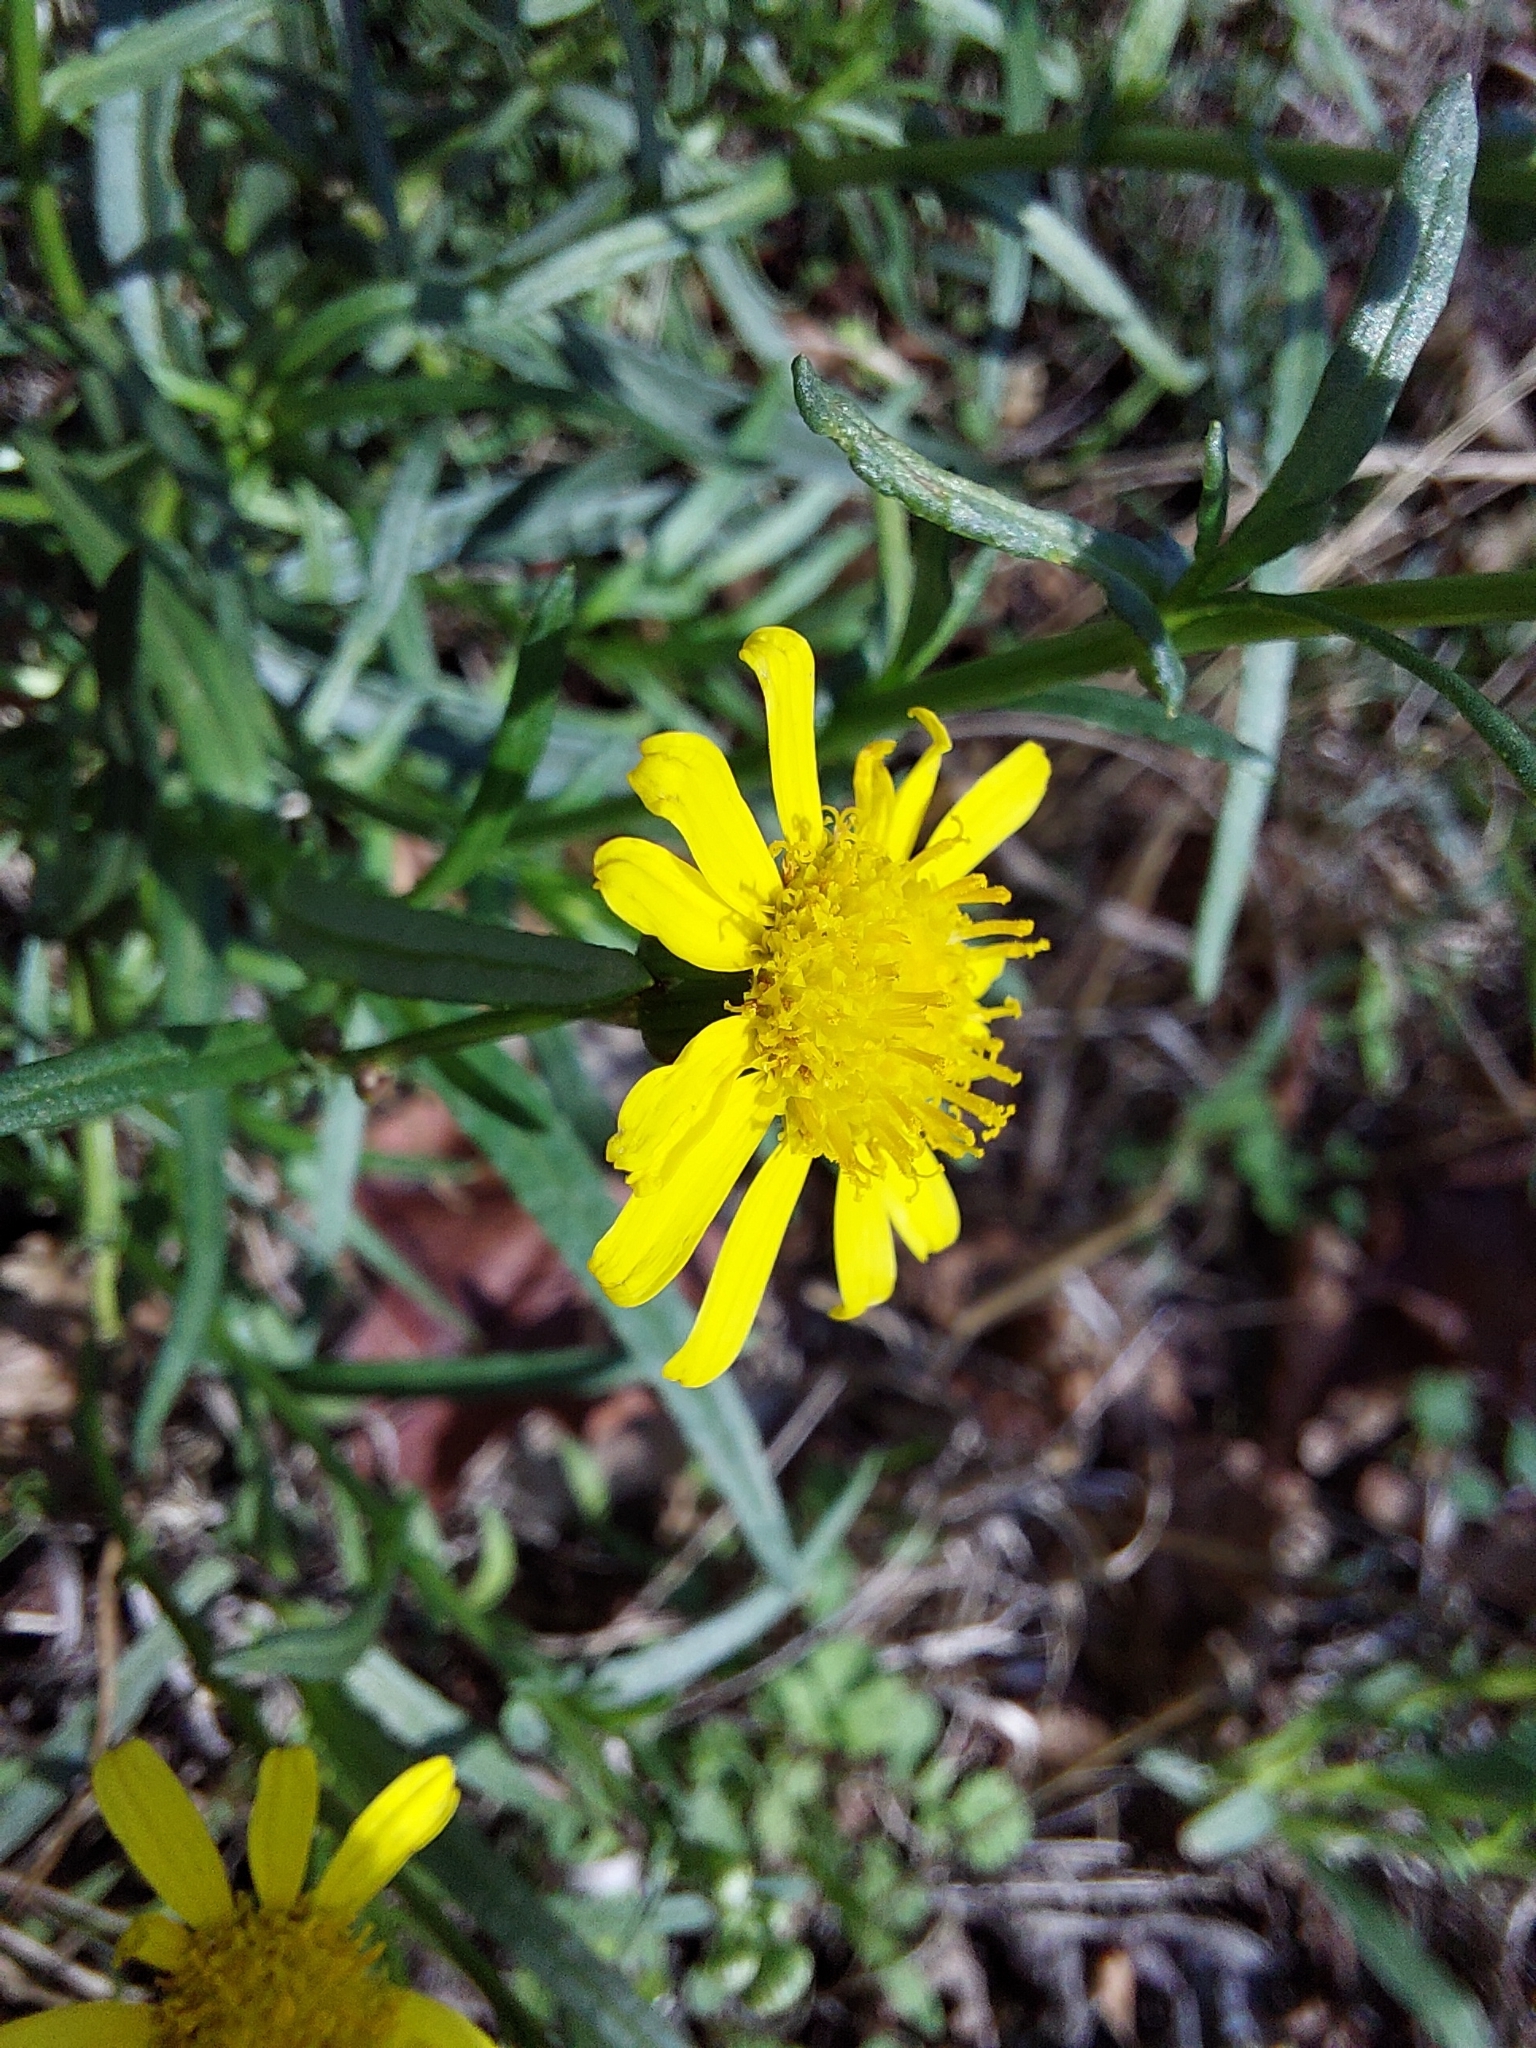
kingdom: Plantae
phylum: Tracheophyta
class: Magnoliopsida
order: Asterales
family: Asteraceae
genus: Senecio
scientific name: Senecio inaequidens
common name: Narrow-leaved ragwort
